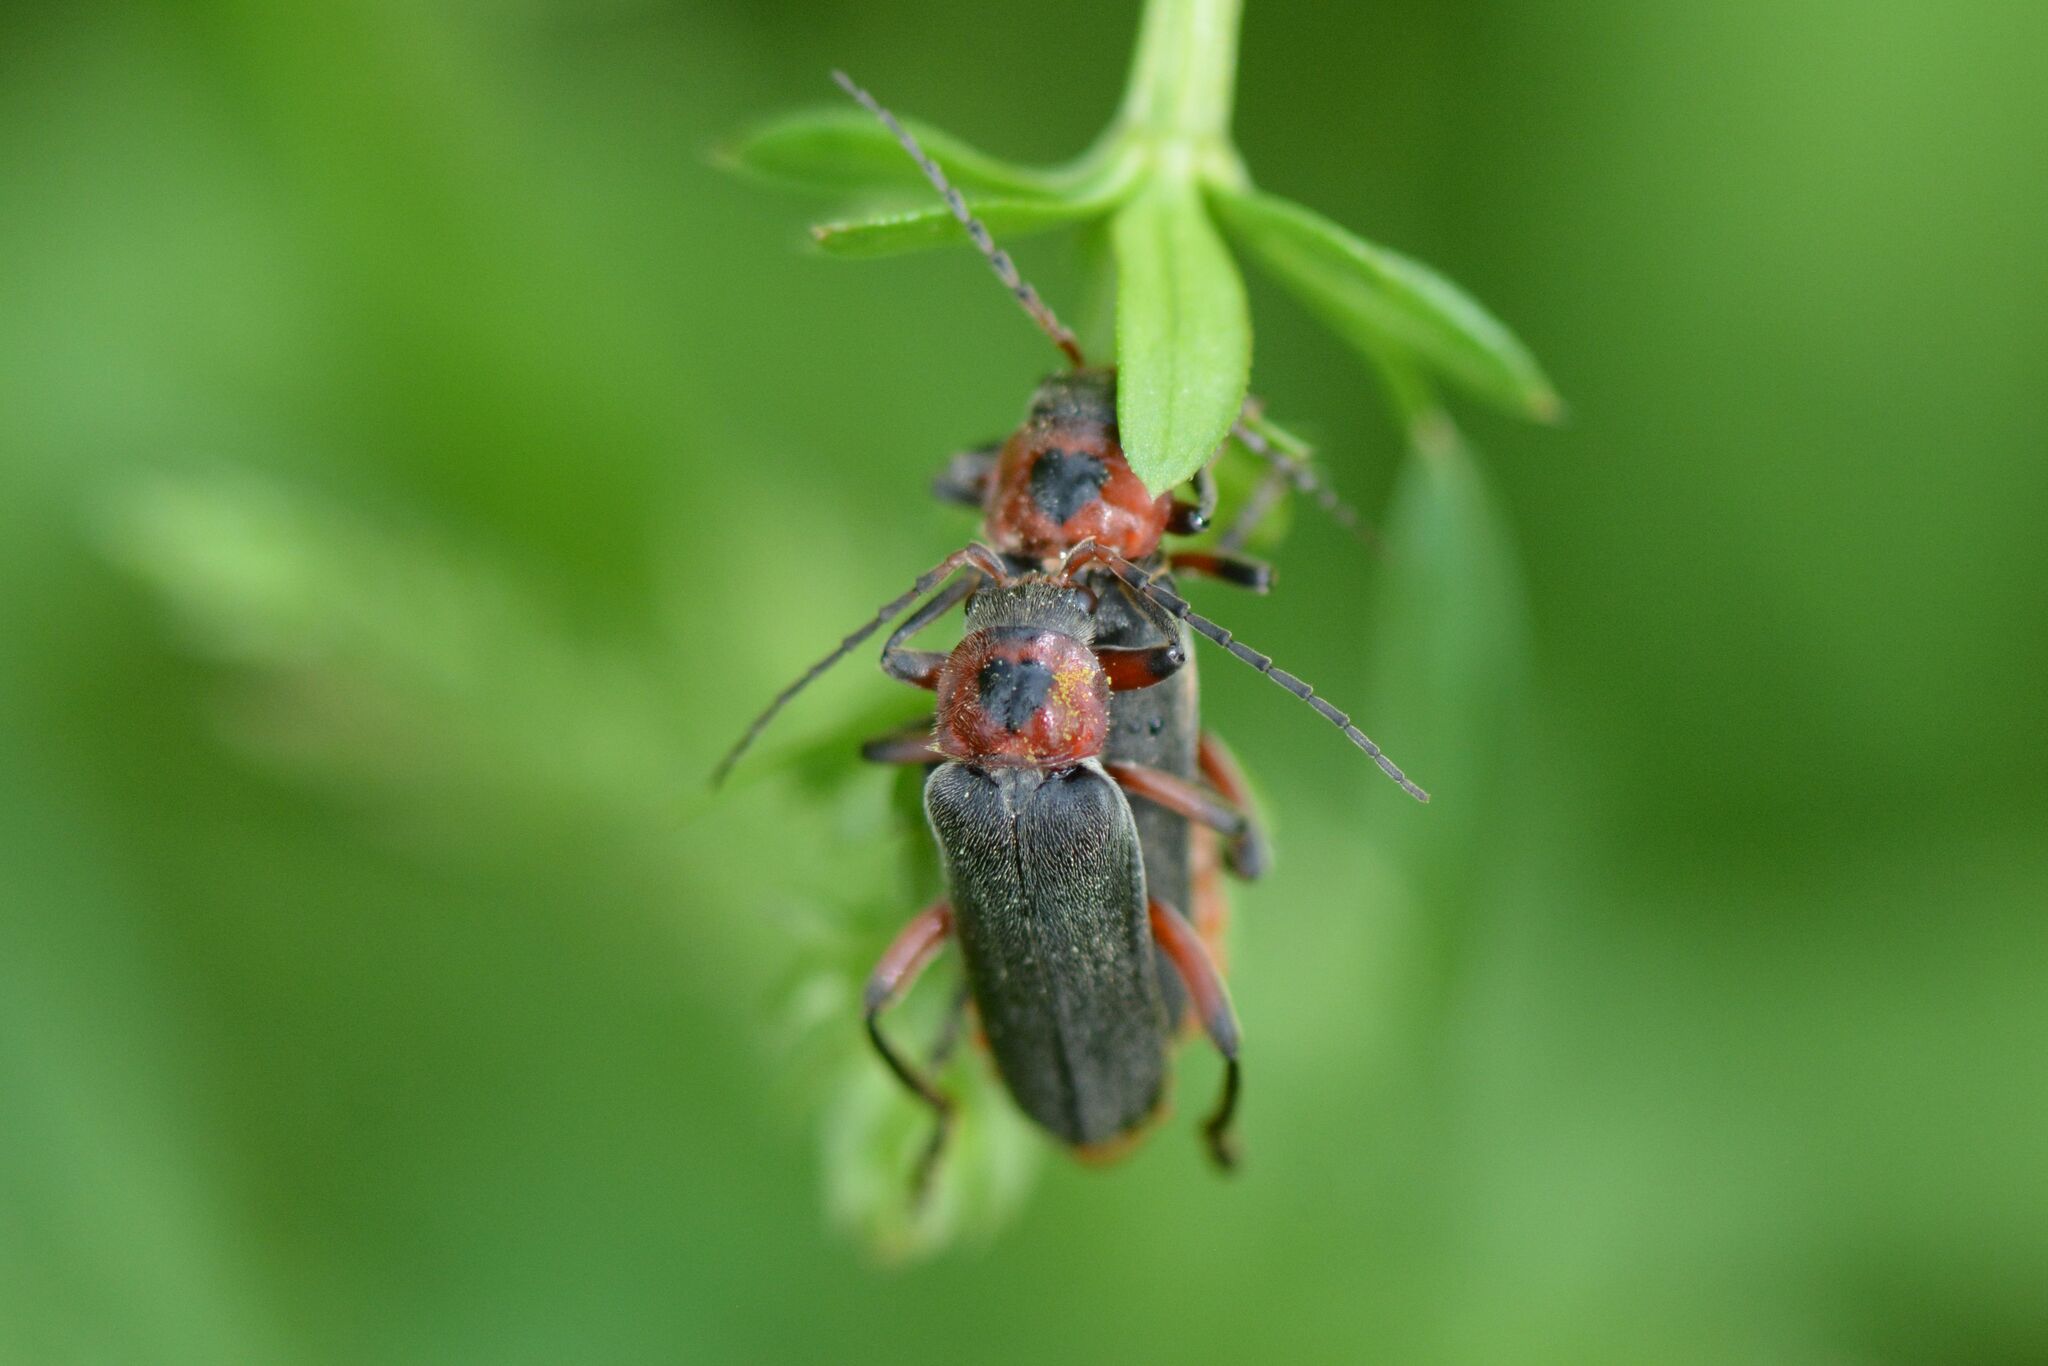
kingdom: Animalia
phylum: Arthropoda
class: Insecta
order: Coleoptera
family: Cantharidae
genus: Cantharis
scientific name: Cantharis rustica
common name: Soldier beetle
